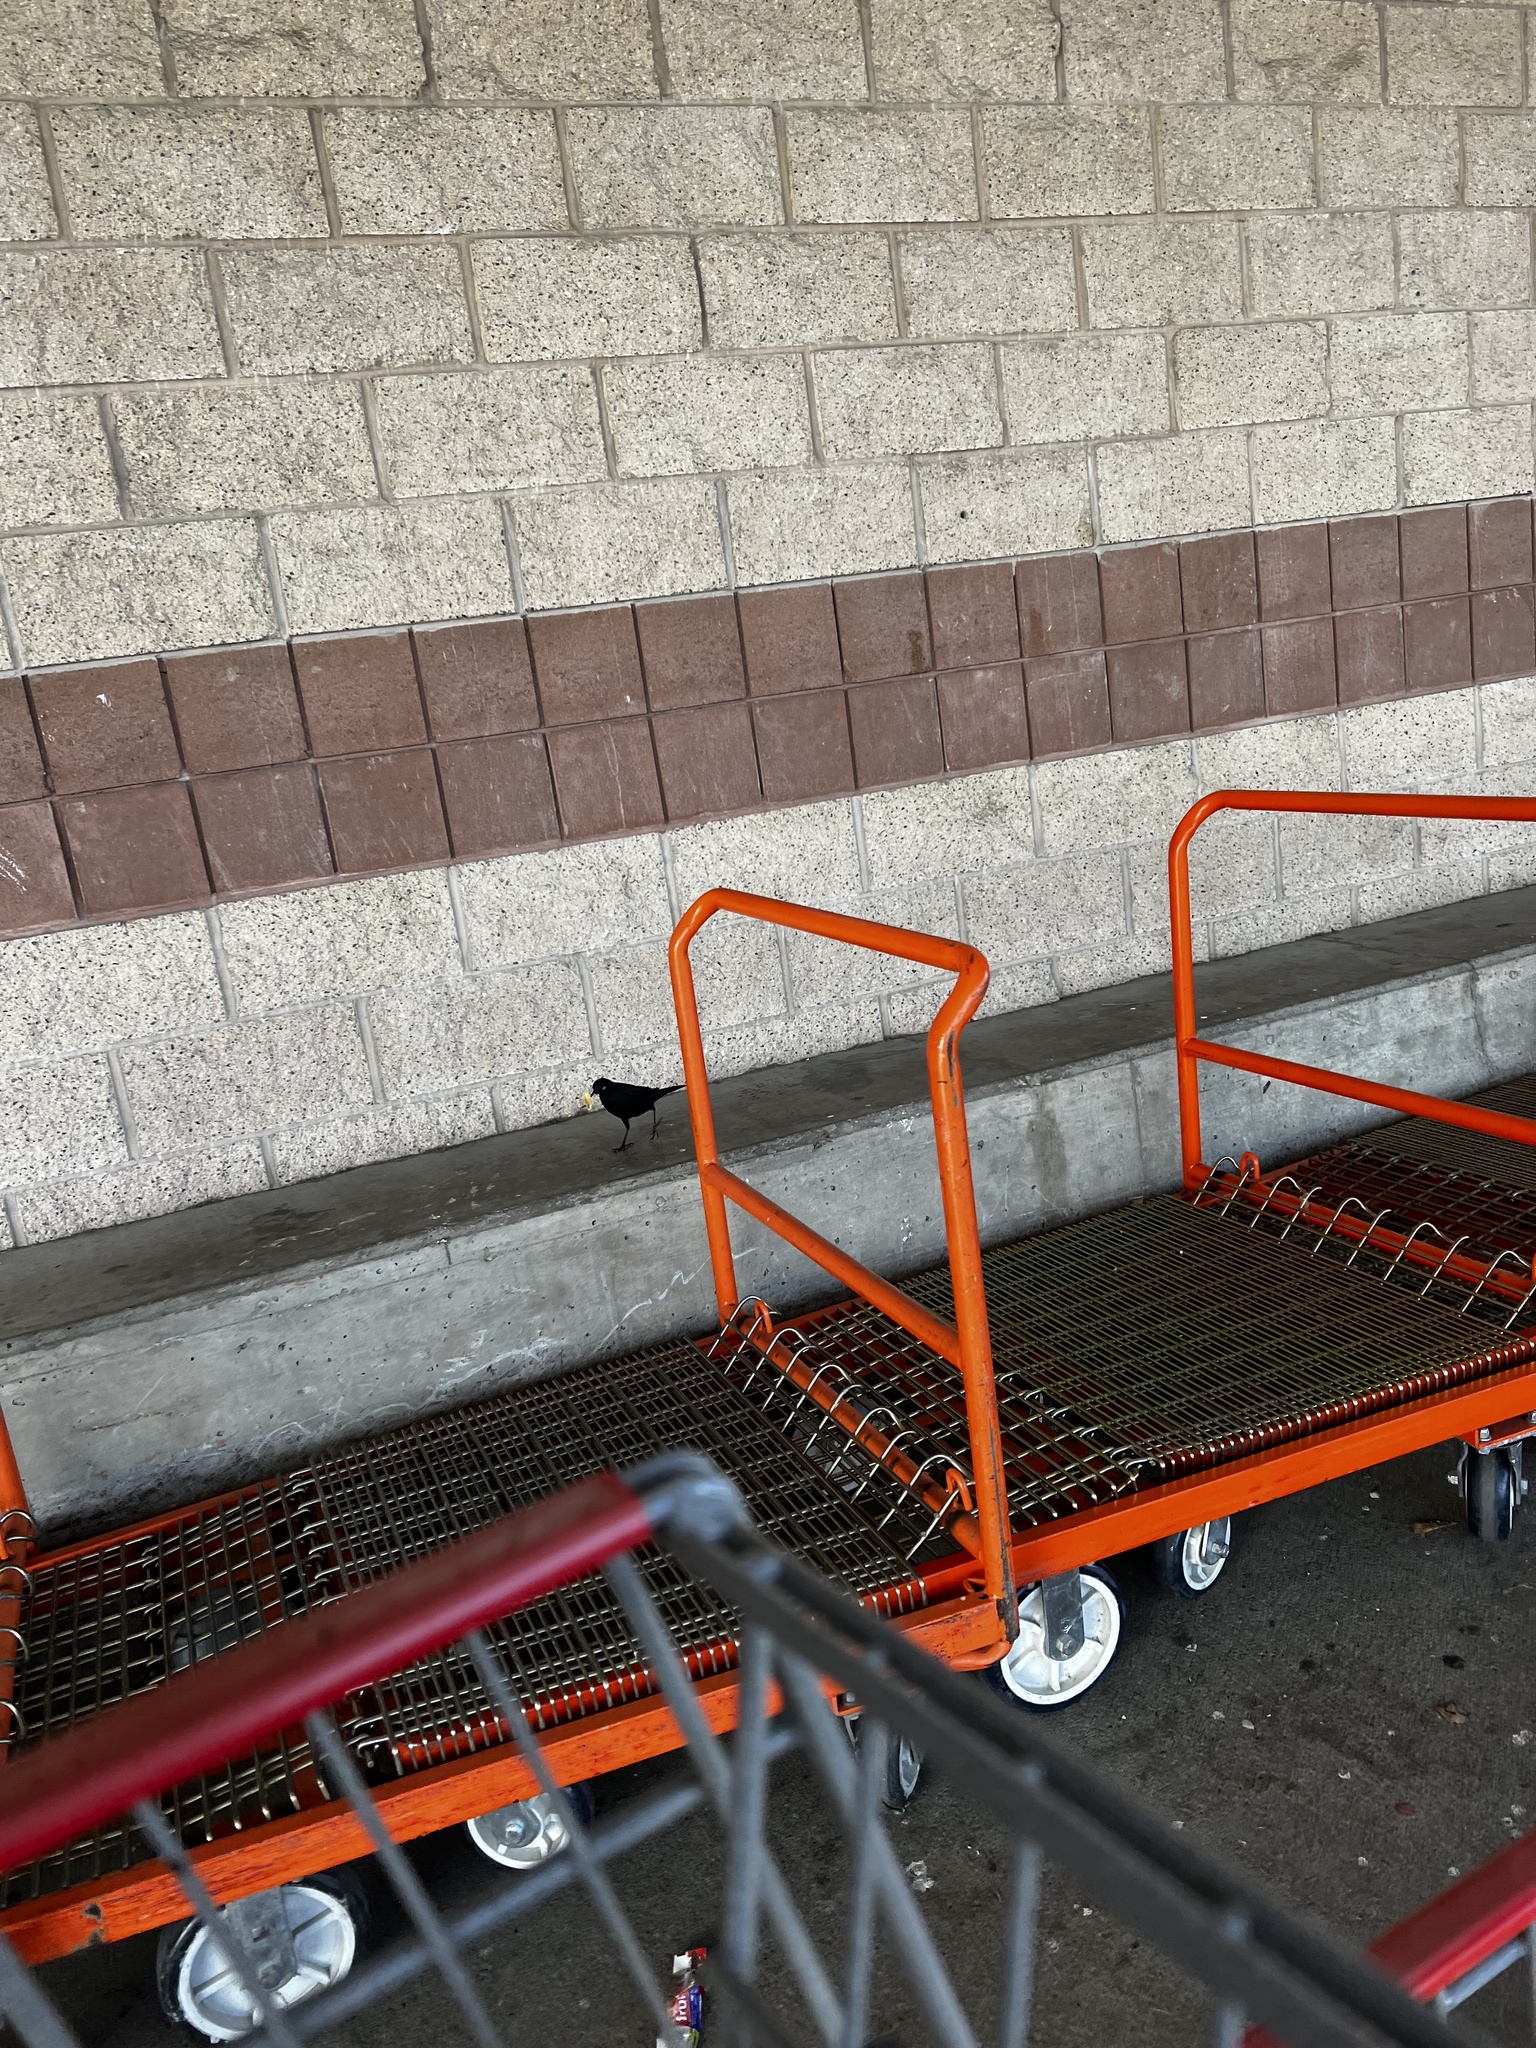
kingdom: Animalia
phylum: Chordata
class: Aves
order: Passeriformes
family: Icteridae
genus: Euphagus
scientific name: Euphagus cyanocephalus
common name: Brewer's blackbird
